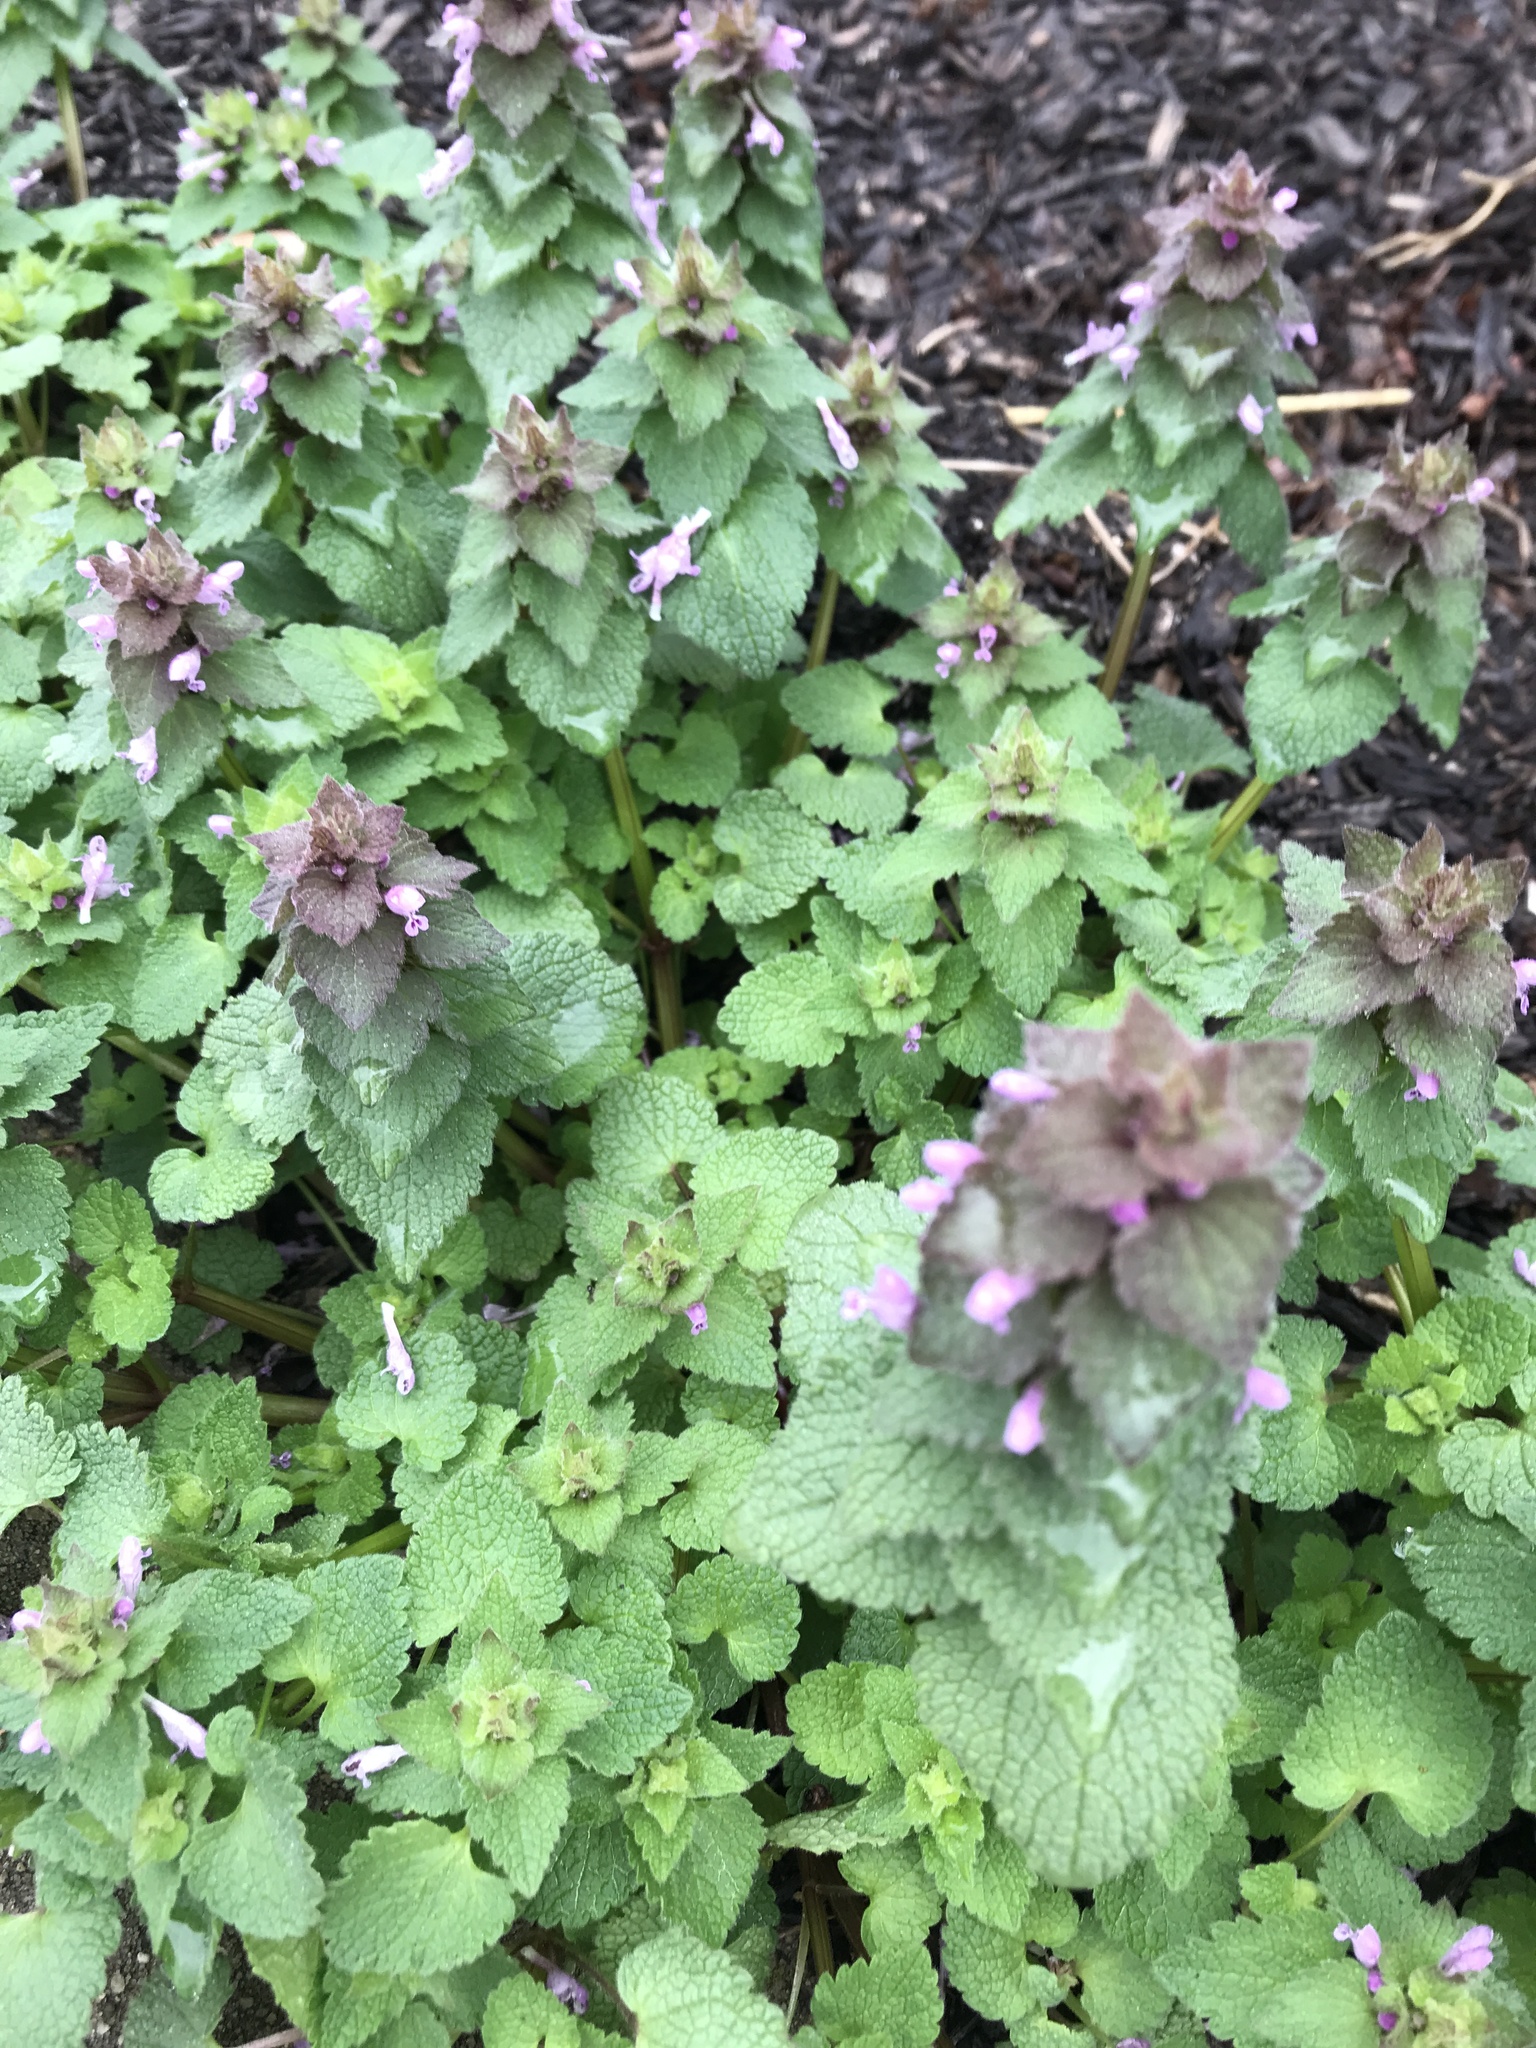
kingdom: Plantae
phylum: Tracheophyta
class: Magnoliopsida
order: Lamiales
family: Lamiaceae
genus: Lamium
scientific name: Lamium purpureum
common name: Red dead-nettle
